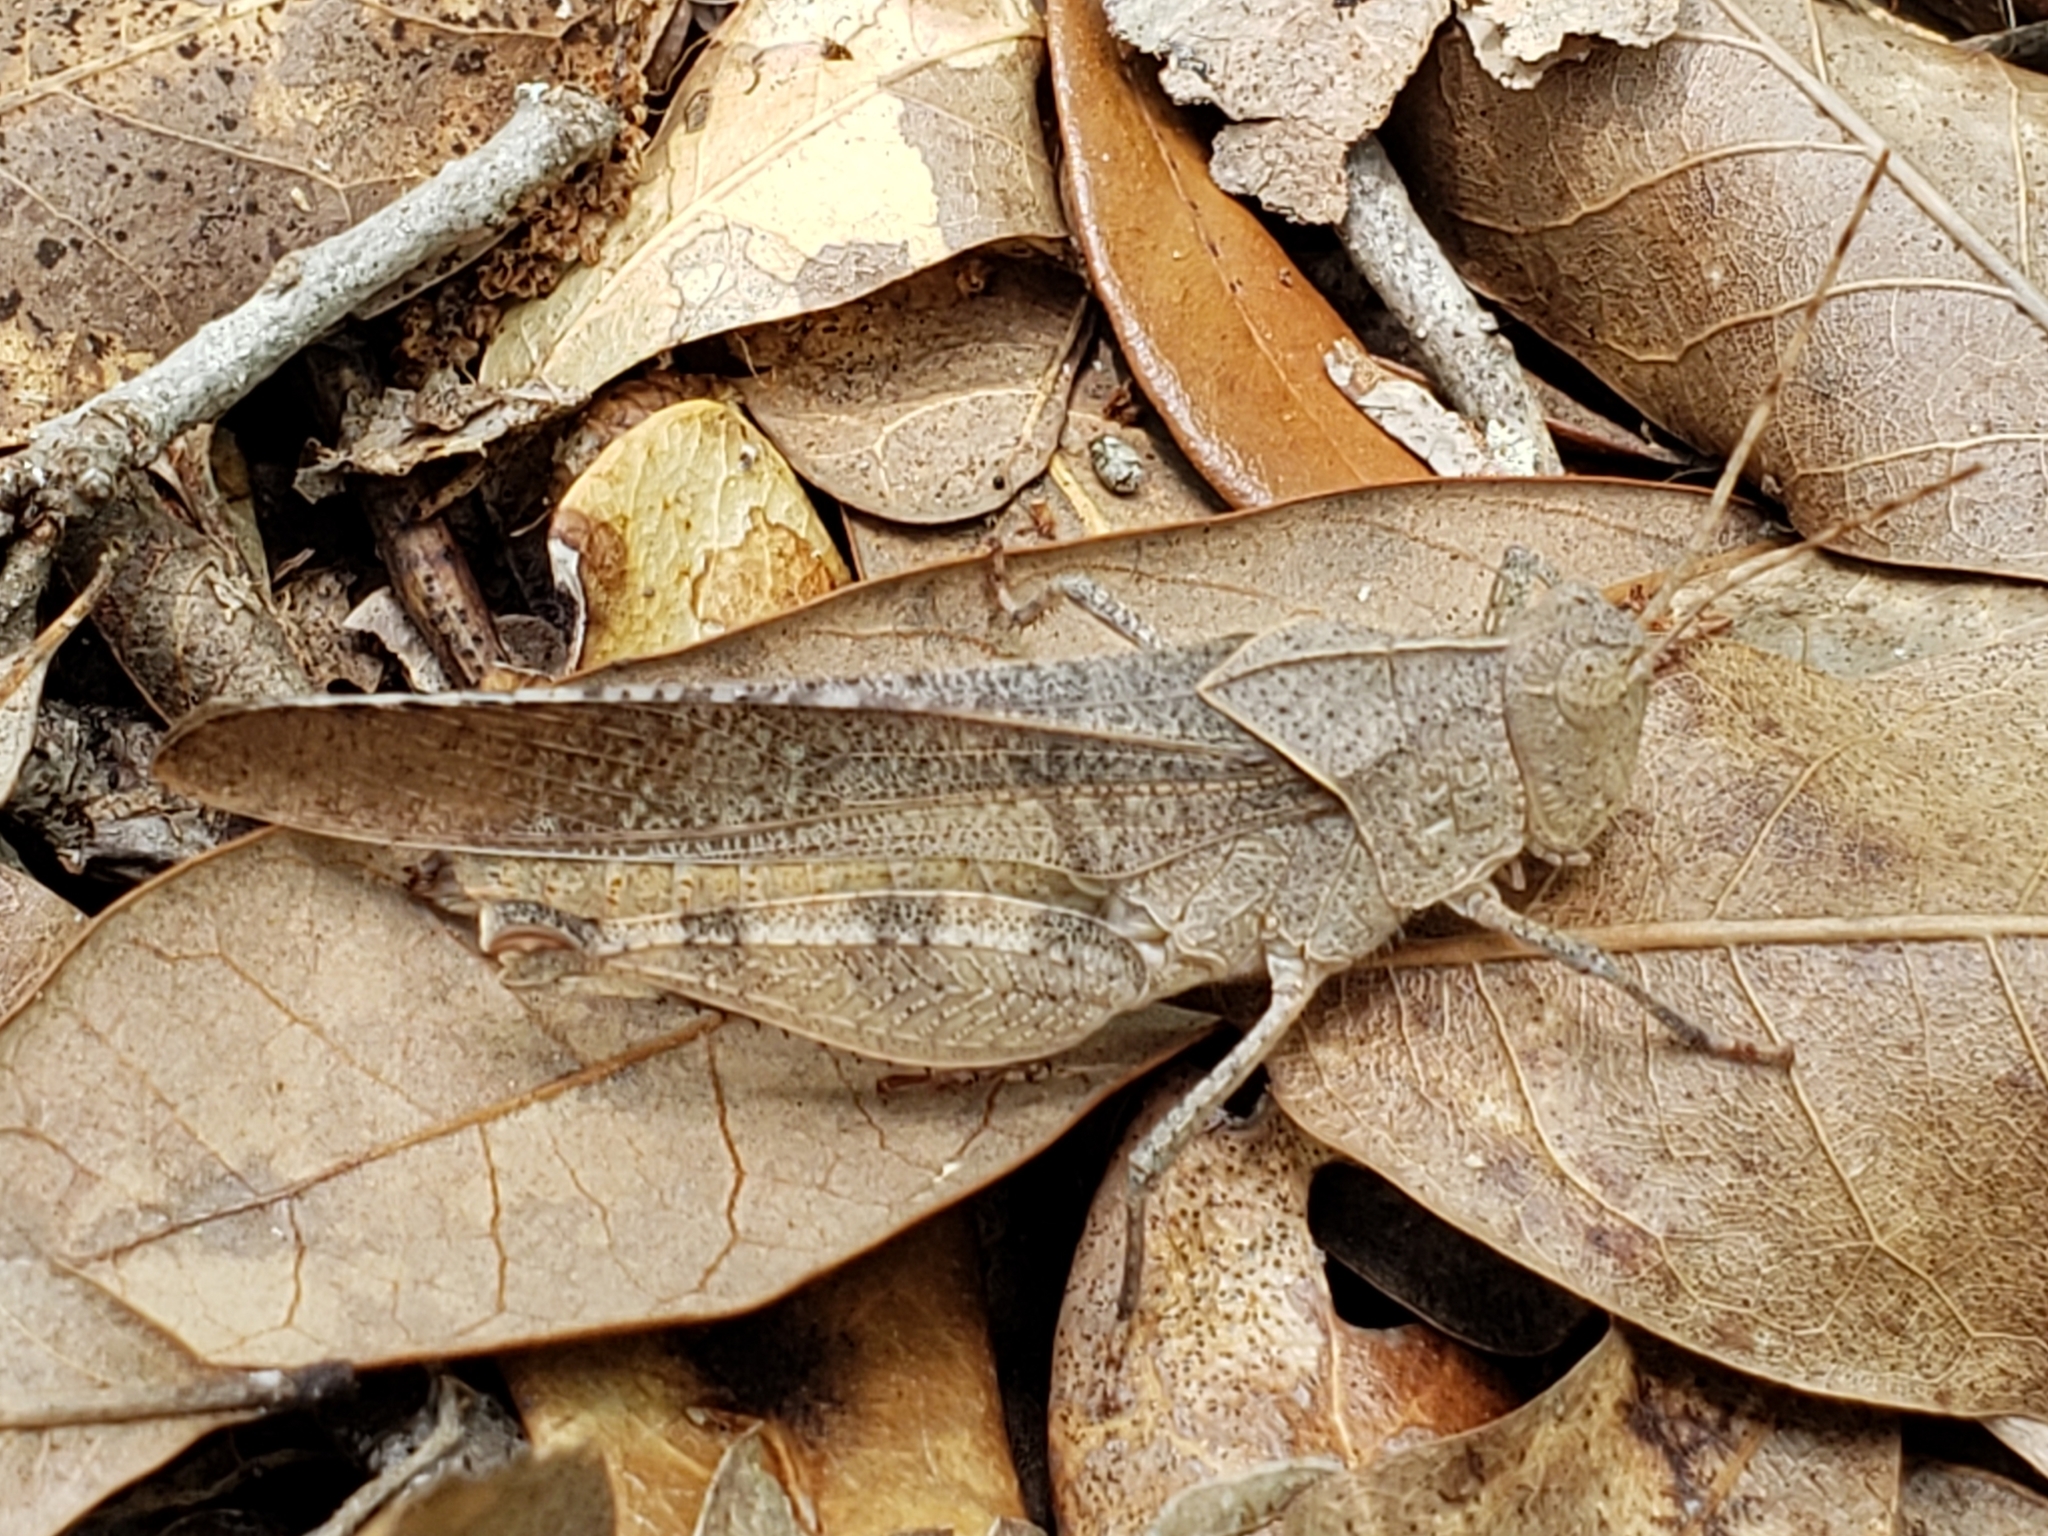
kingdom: Animalia
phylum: Arthropoda
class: Insecta
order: Orthoptera
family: Acrididae
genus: Spharagemon
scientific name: Spharagemon crepitans
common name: Crepitating grasshopper
